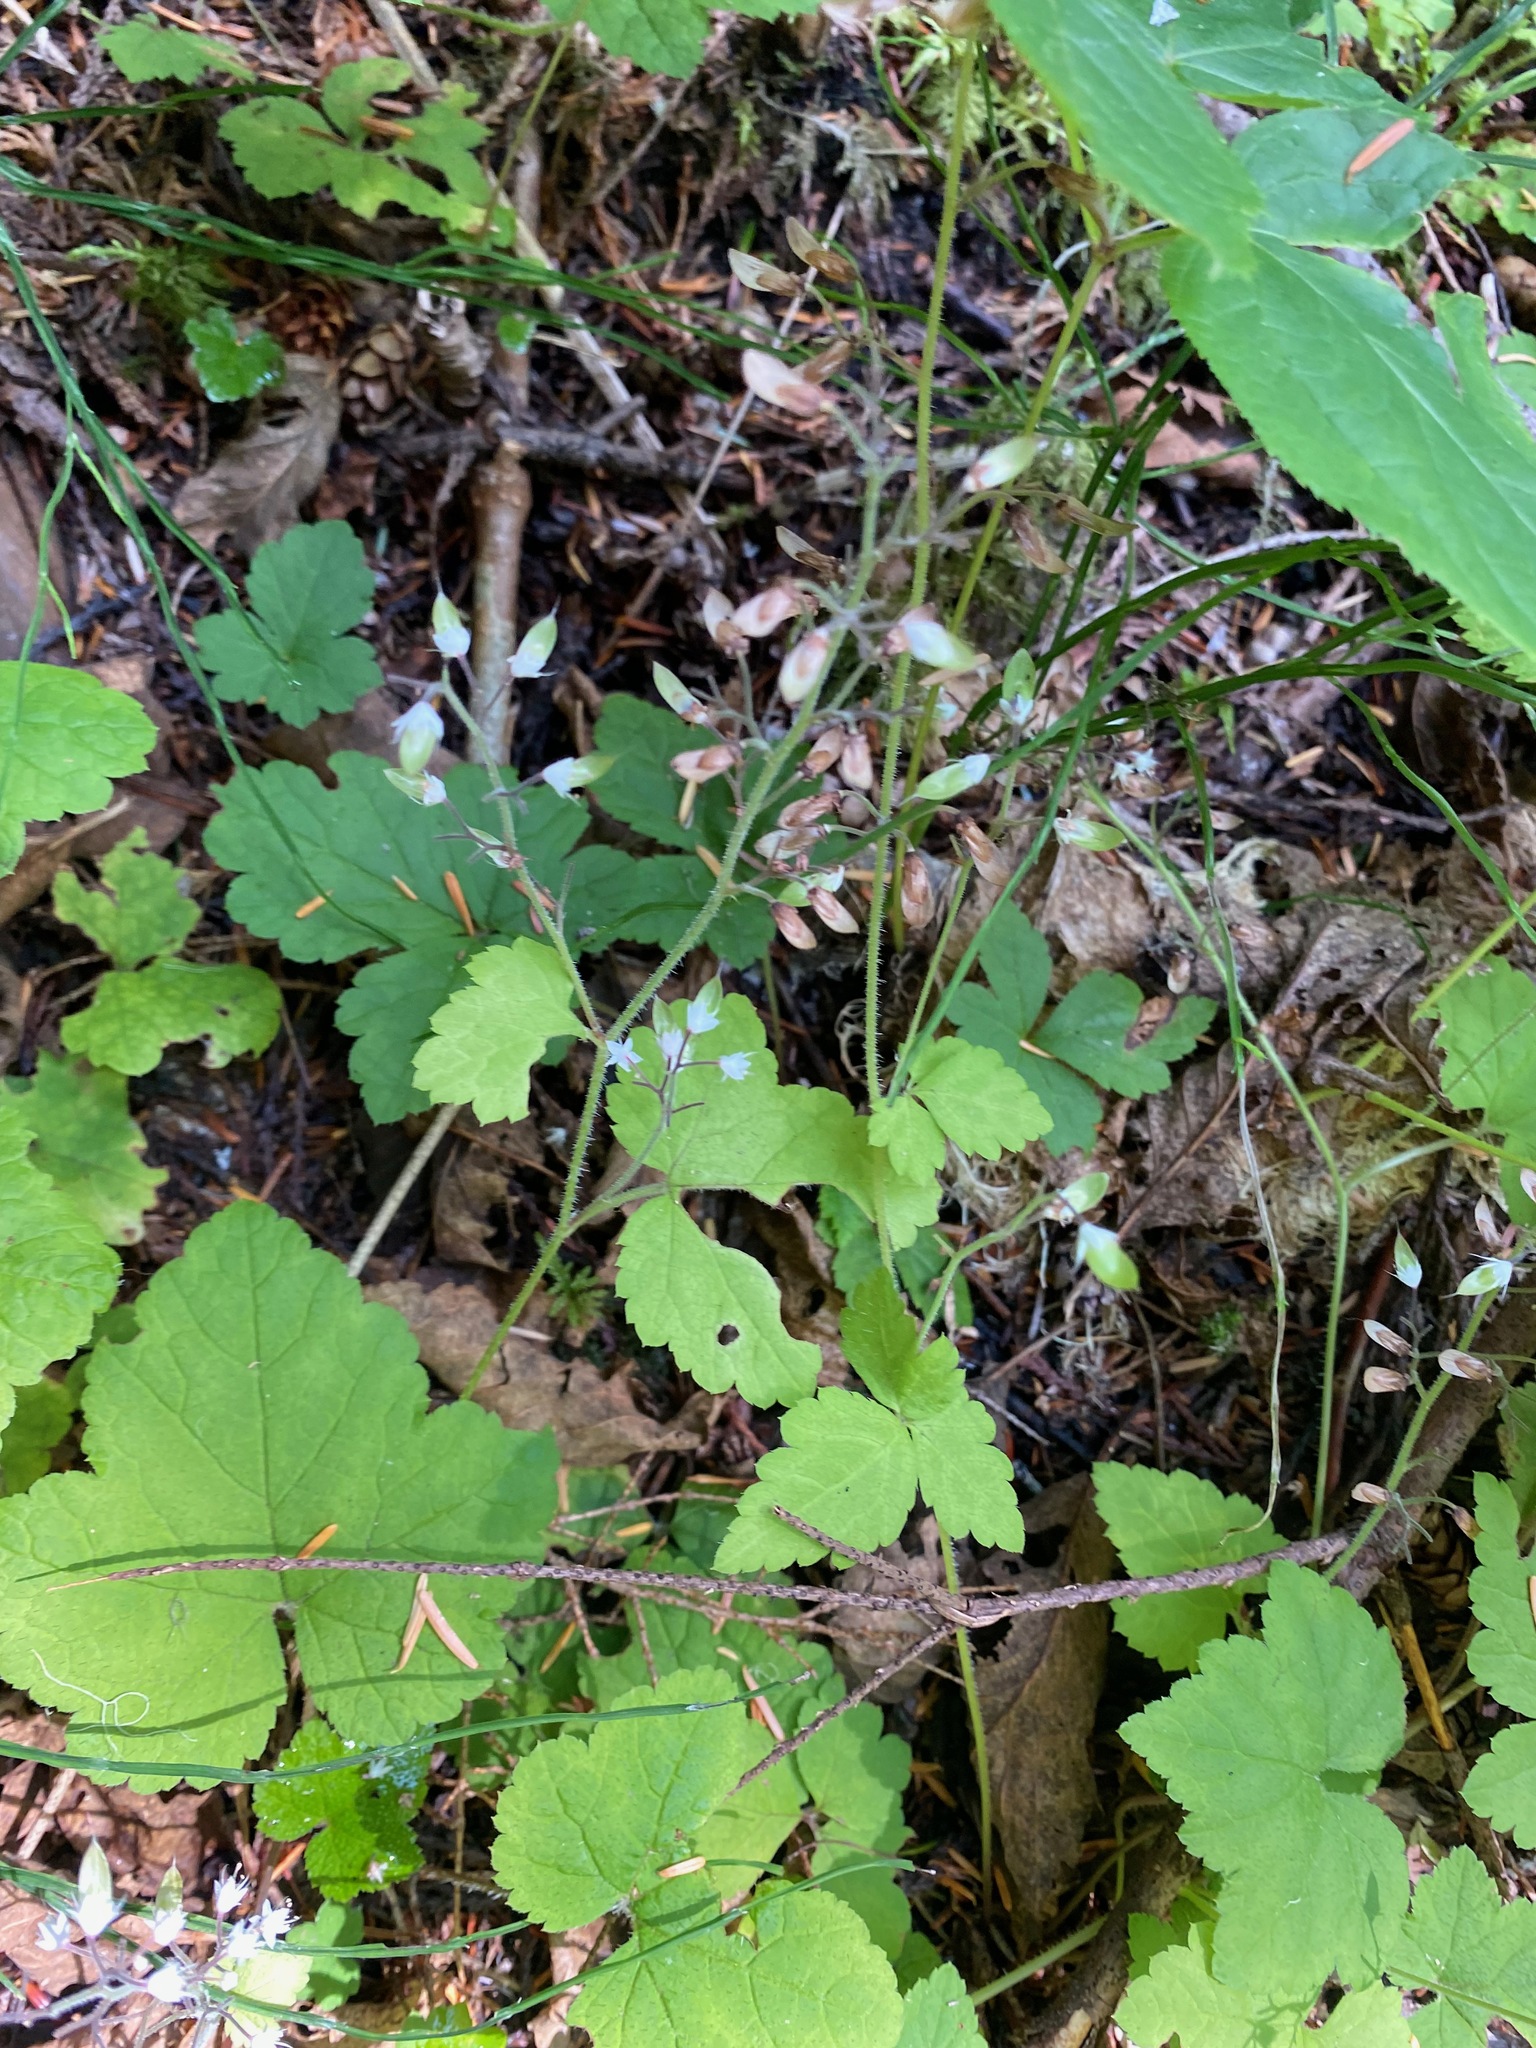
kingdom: Plantae
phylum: Tracheophyta
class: Magnoliopsida
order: Saxifragales
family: Saxifragaceae
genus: Tiarella
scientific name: Tiarella trifoliata
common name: Sugar-scoop
